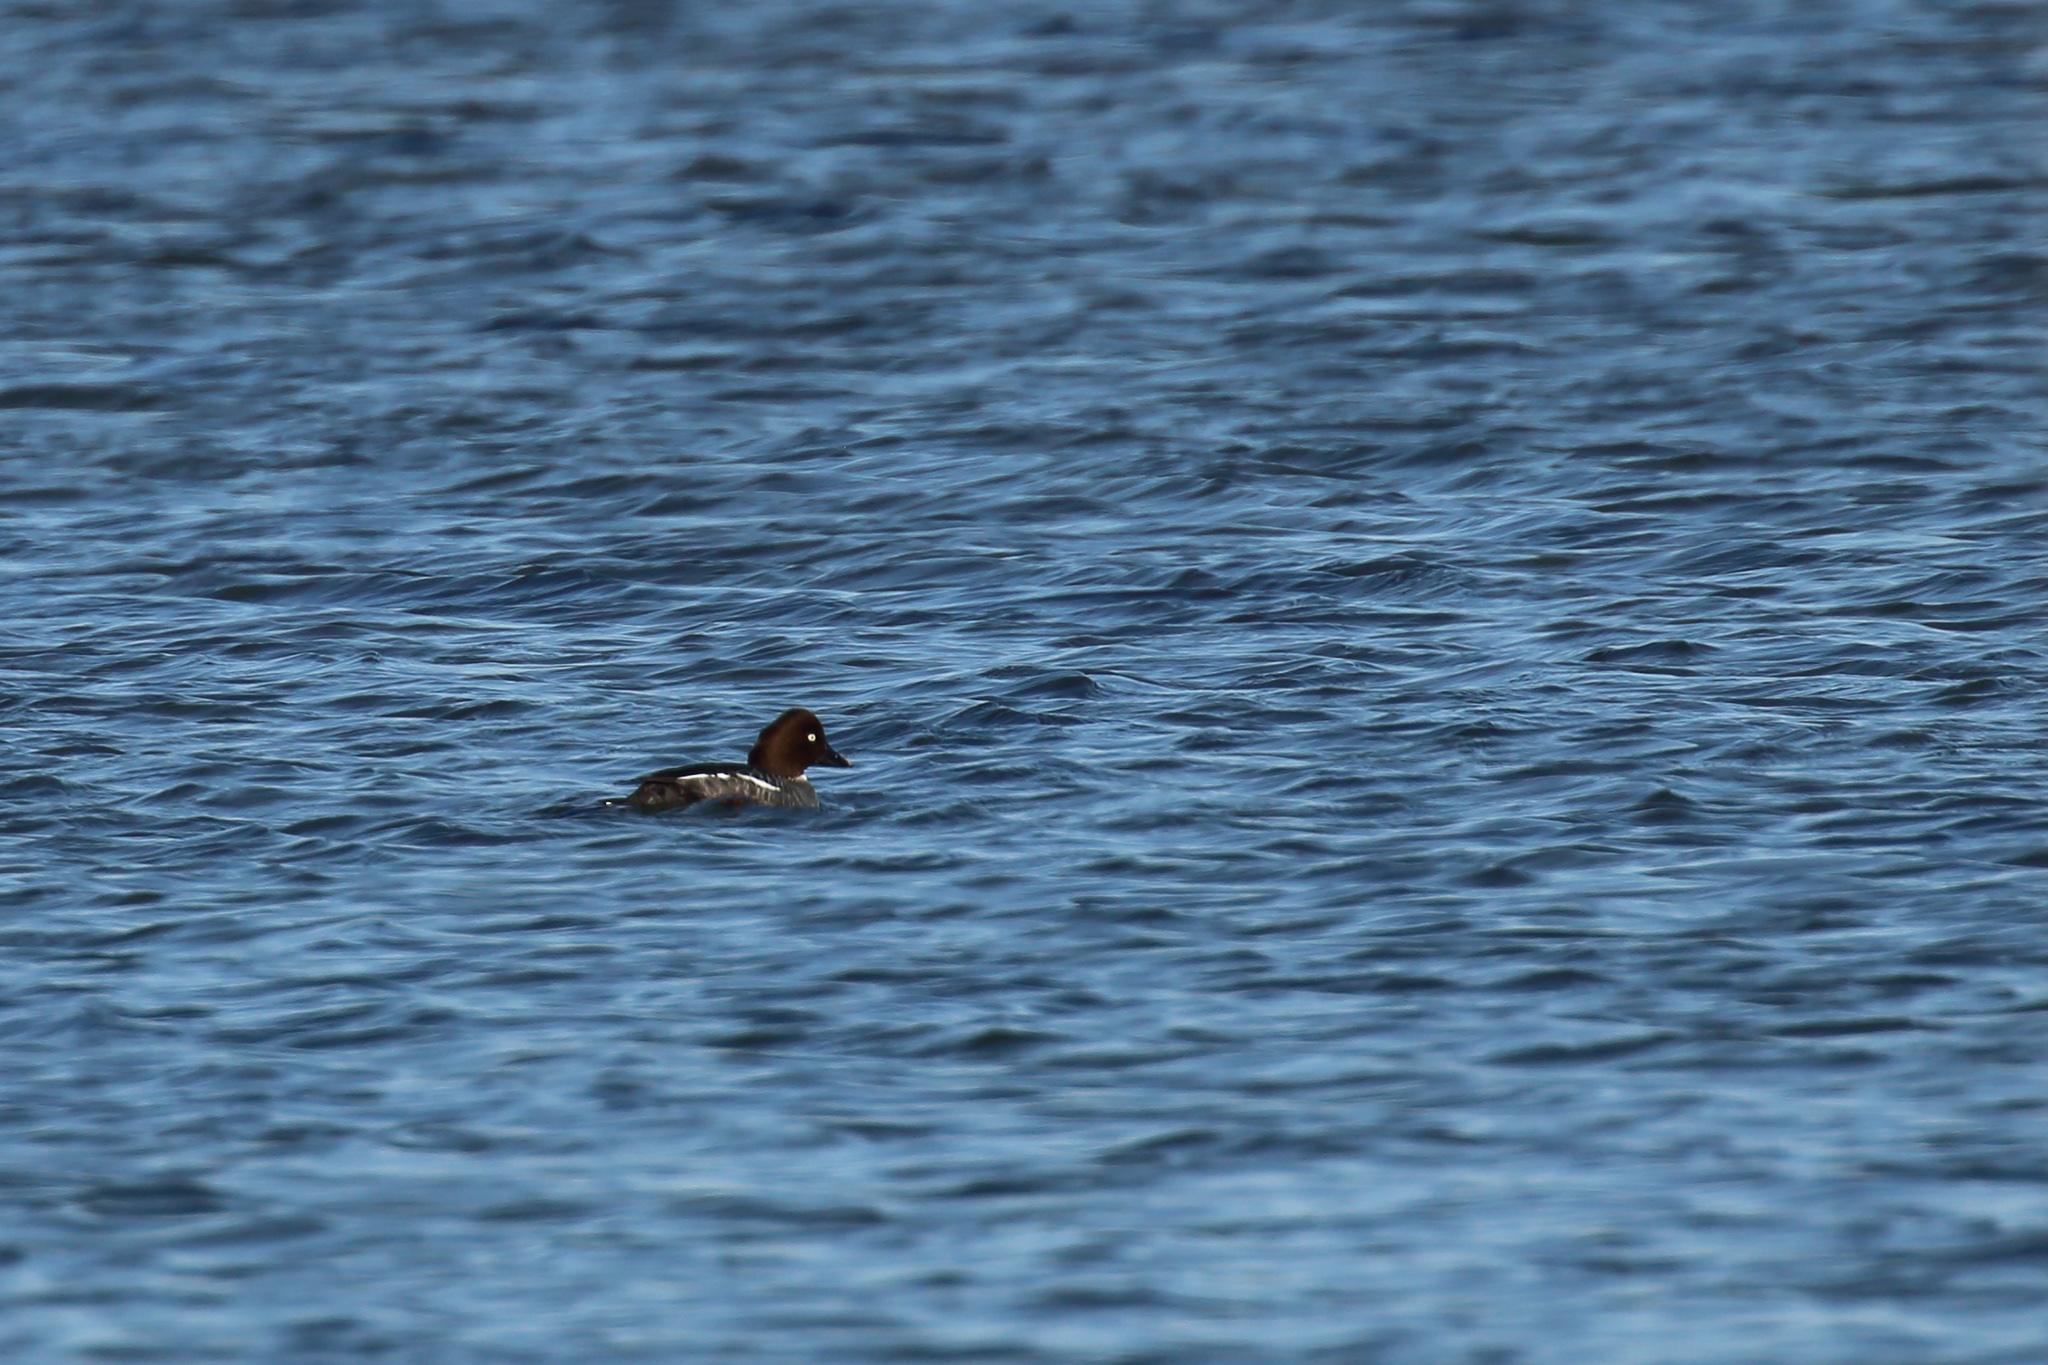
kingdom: Animalia
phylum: Chordata
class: Aves
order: Anseriformes
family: Anatidae
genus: Bucephala
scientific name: Bucephala clangula
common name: Common goldeneye
